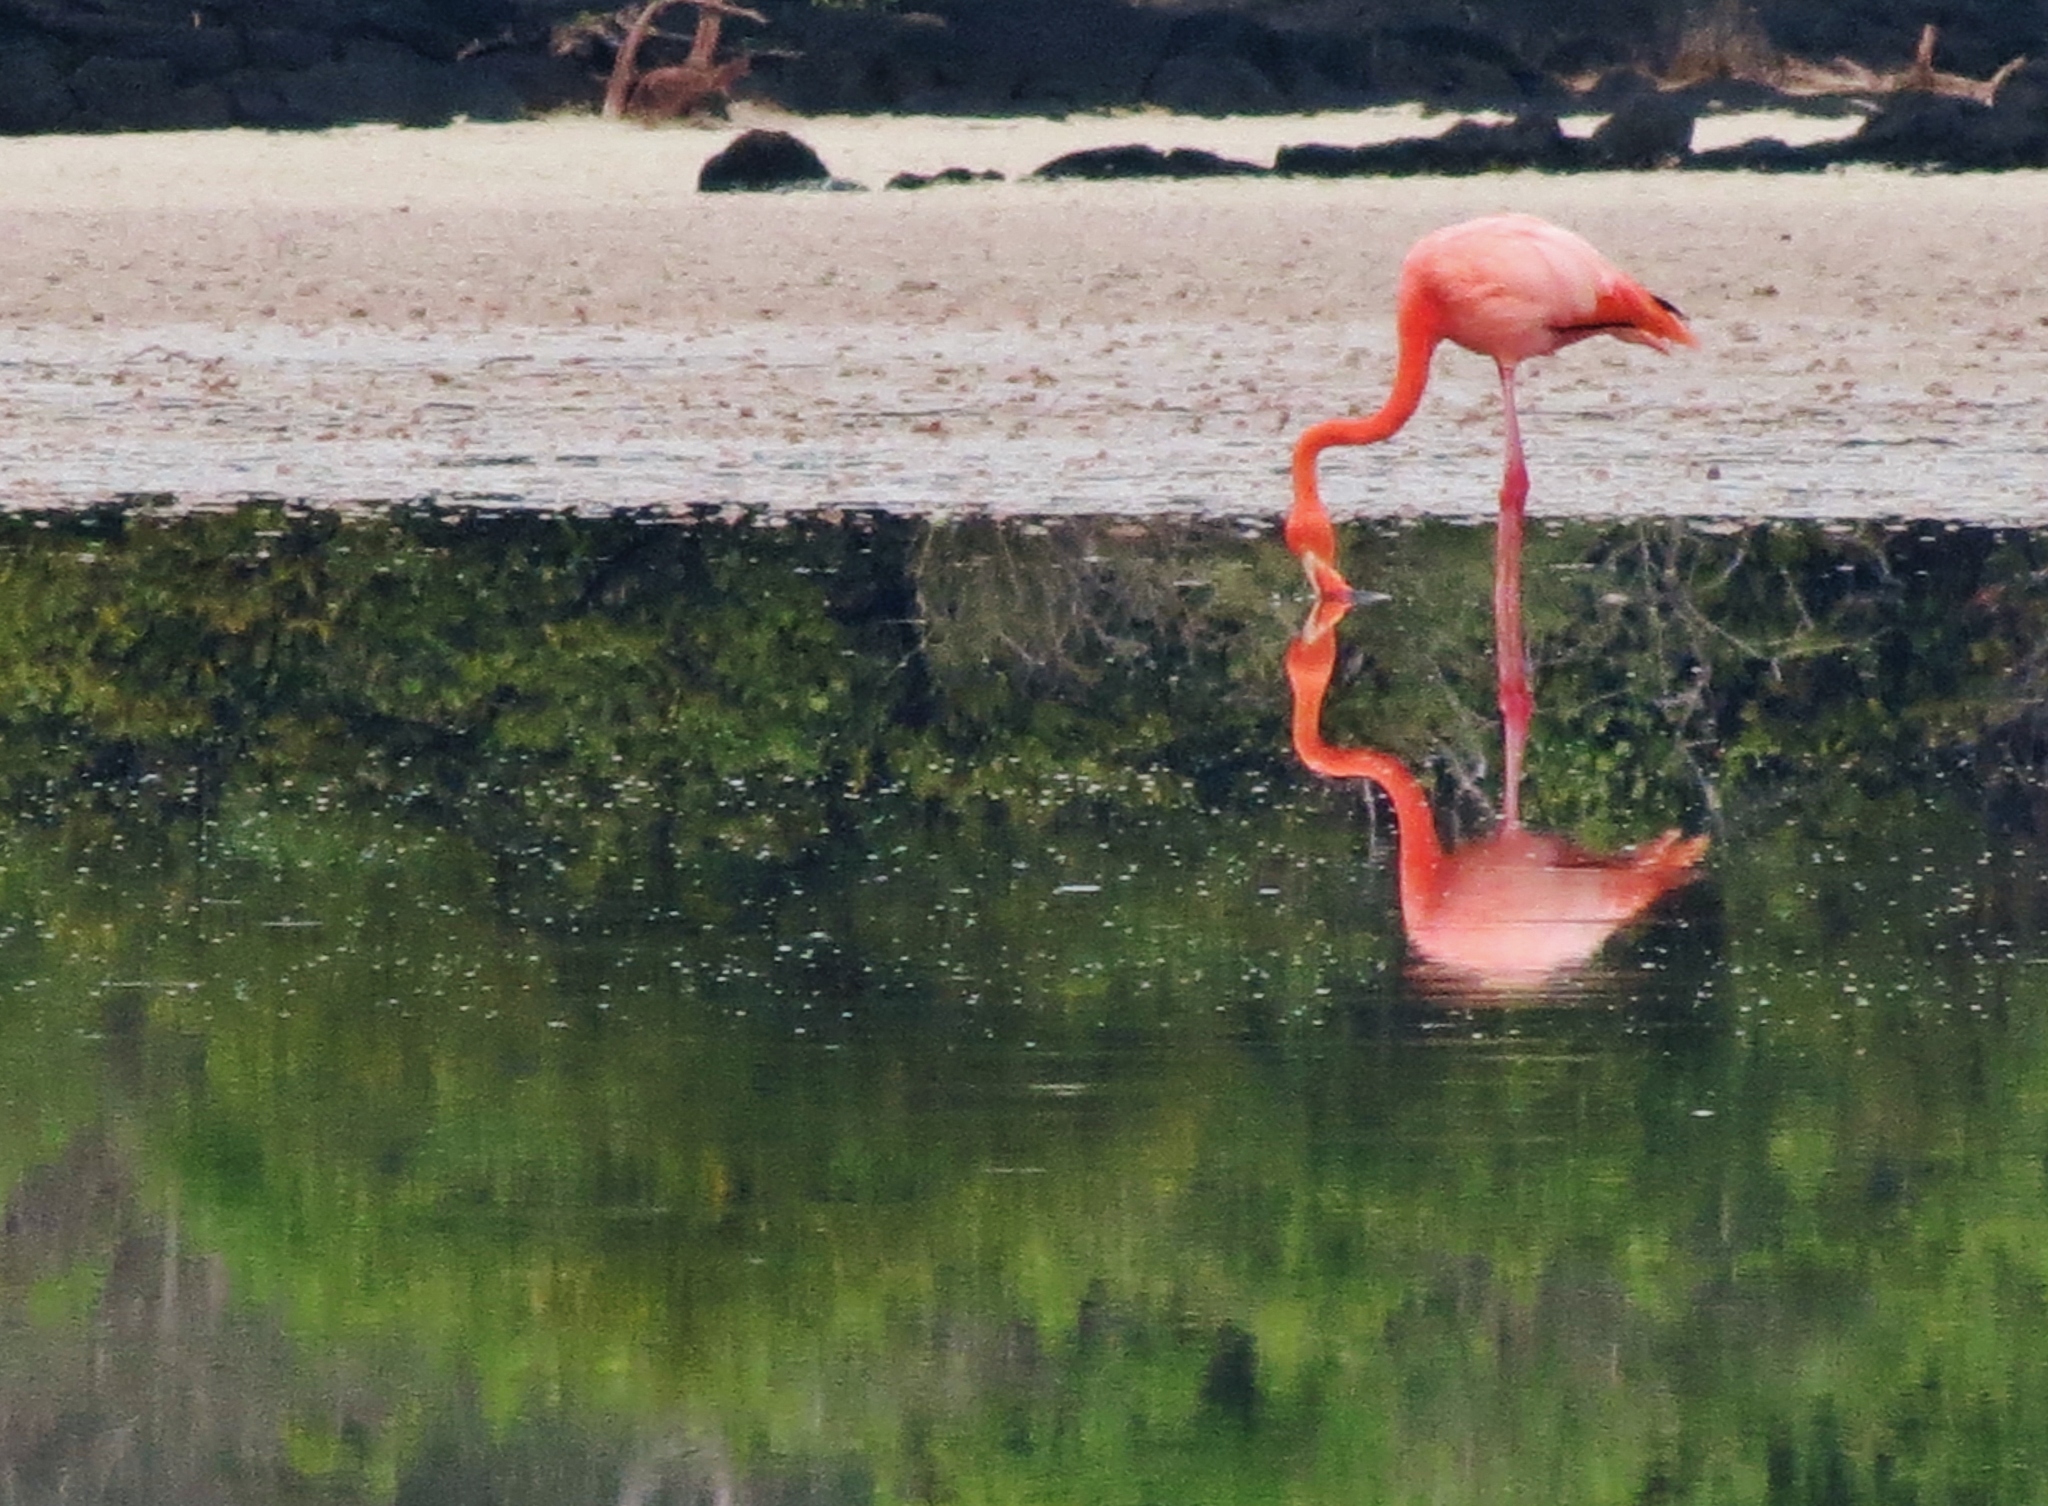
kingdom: Animalia
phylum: Chordata
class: Aves
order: Phoenicopteriformes
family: Phoenicopteridae
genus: Phoenicopterus
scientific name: Phoenicopterus ruber
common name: American flamingo
